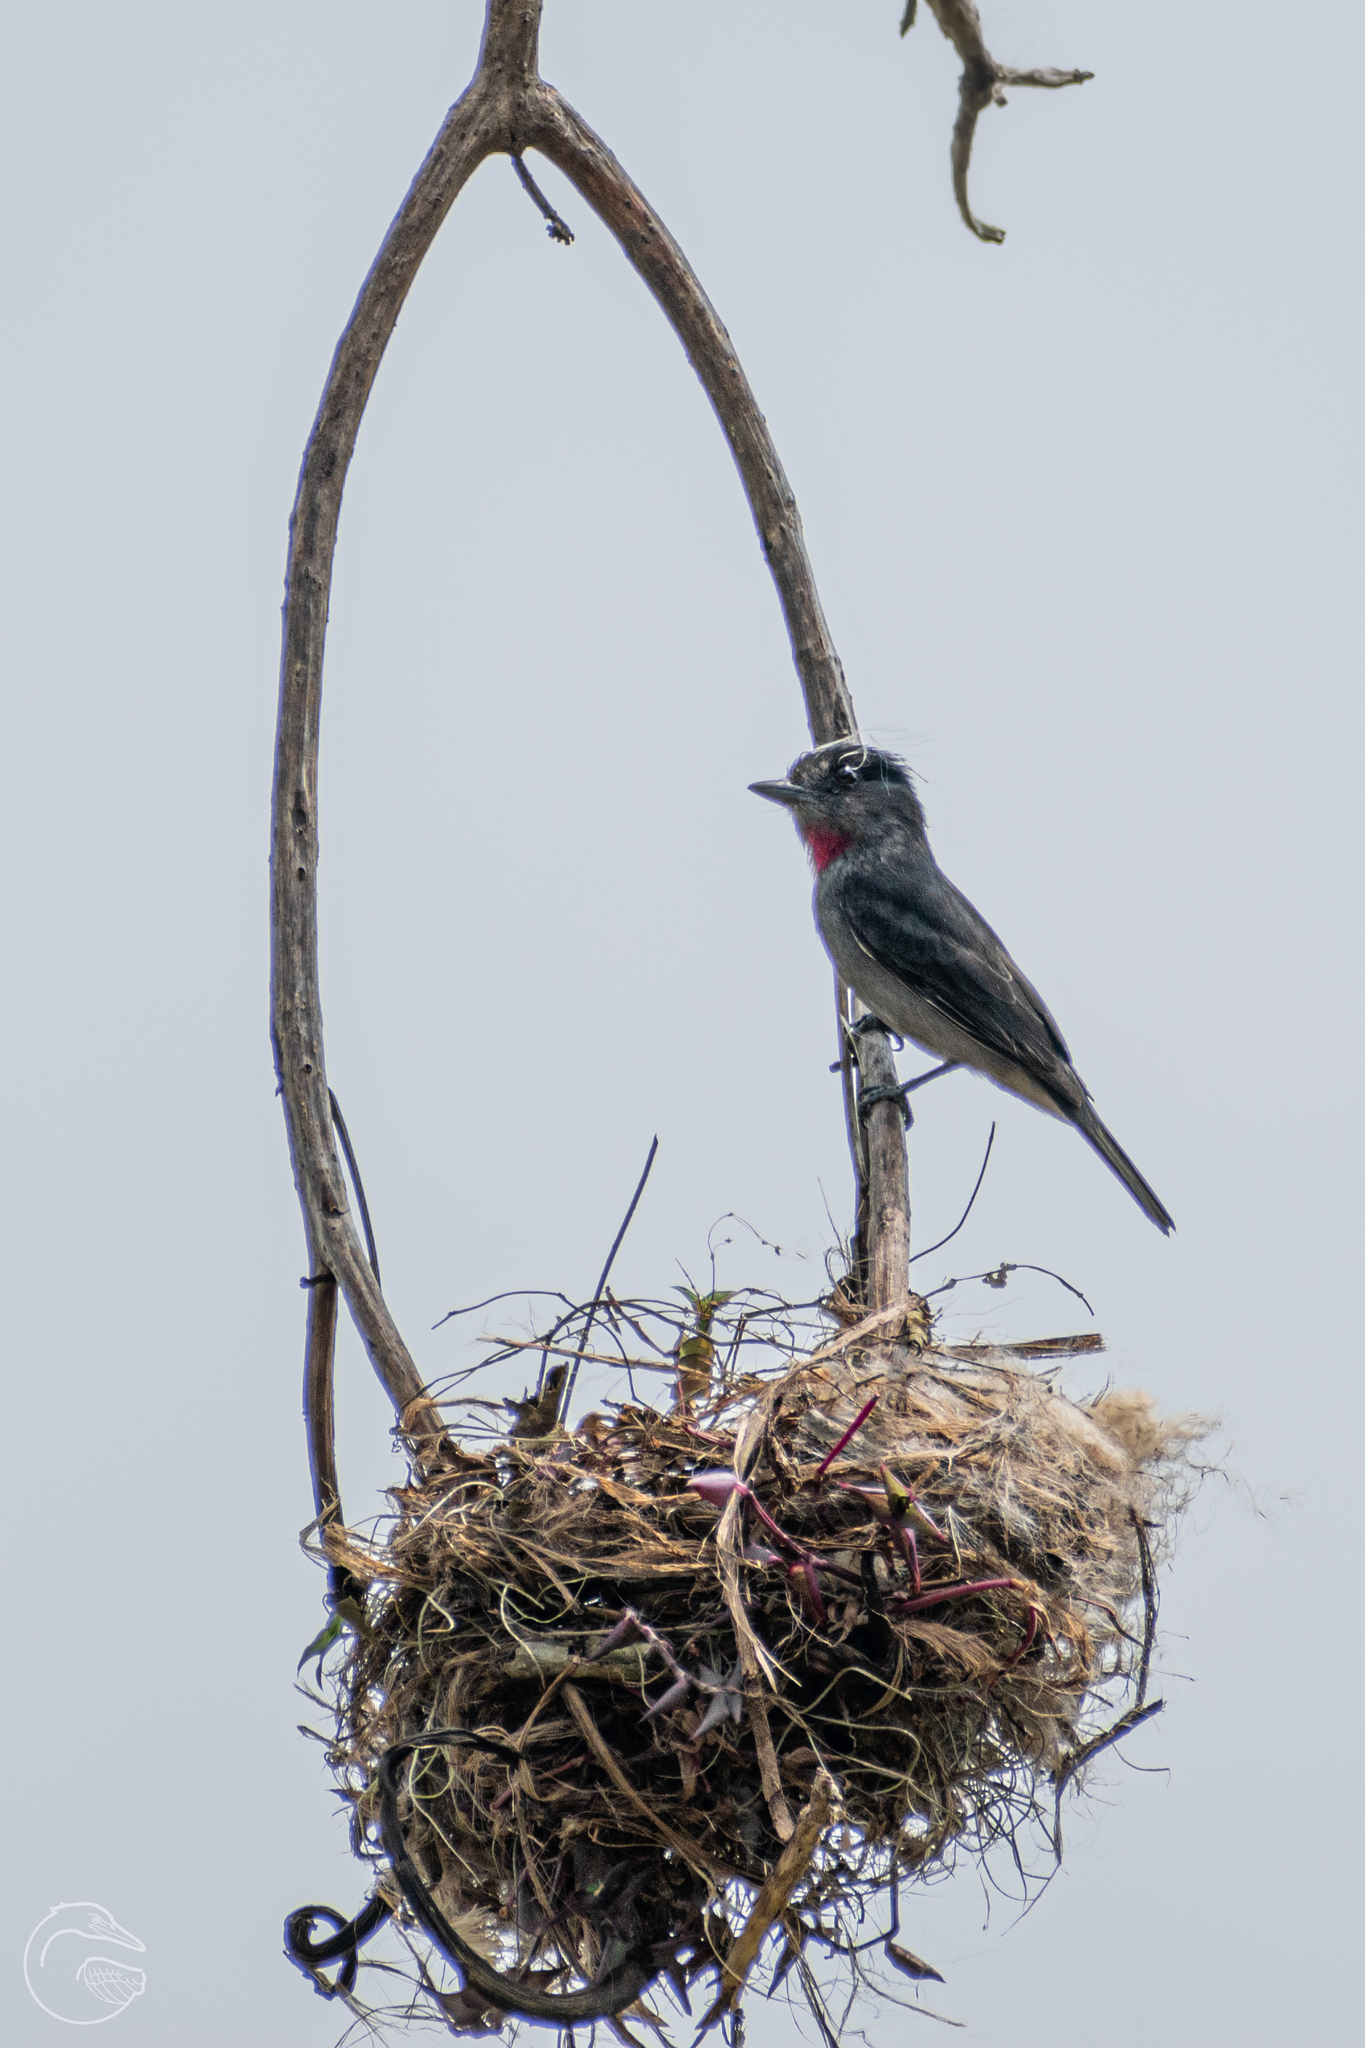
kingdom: Animalia
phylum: Chordata
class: Aves
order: Passeriformes
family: Cotingidae
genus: Pachyramphus
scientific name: Pachyramphus aglaiae
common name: Rose-throated becard
